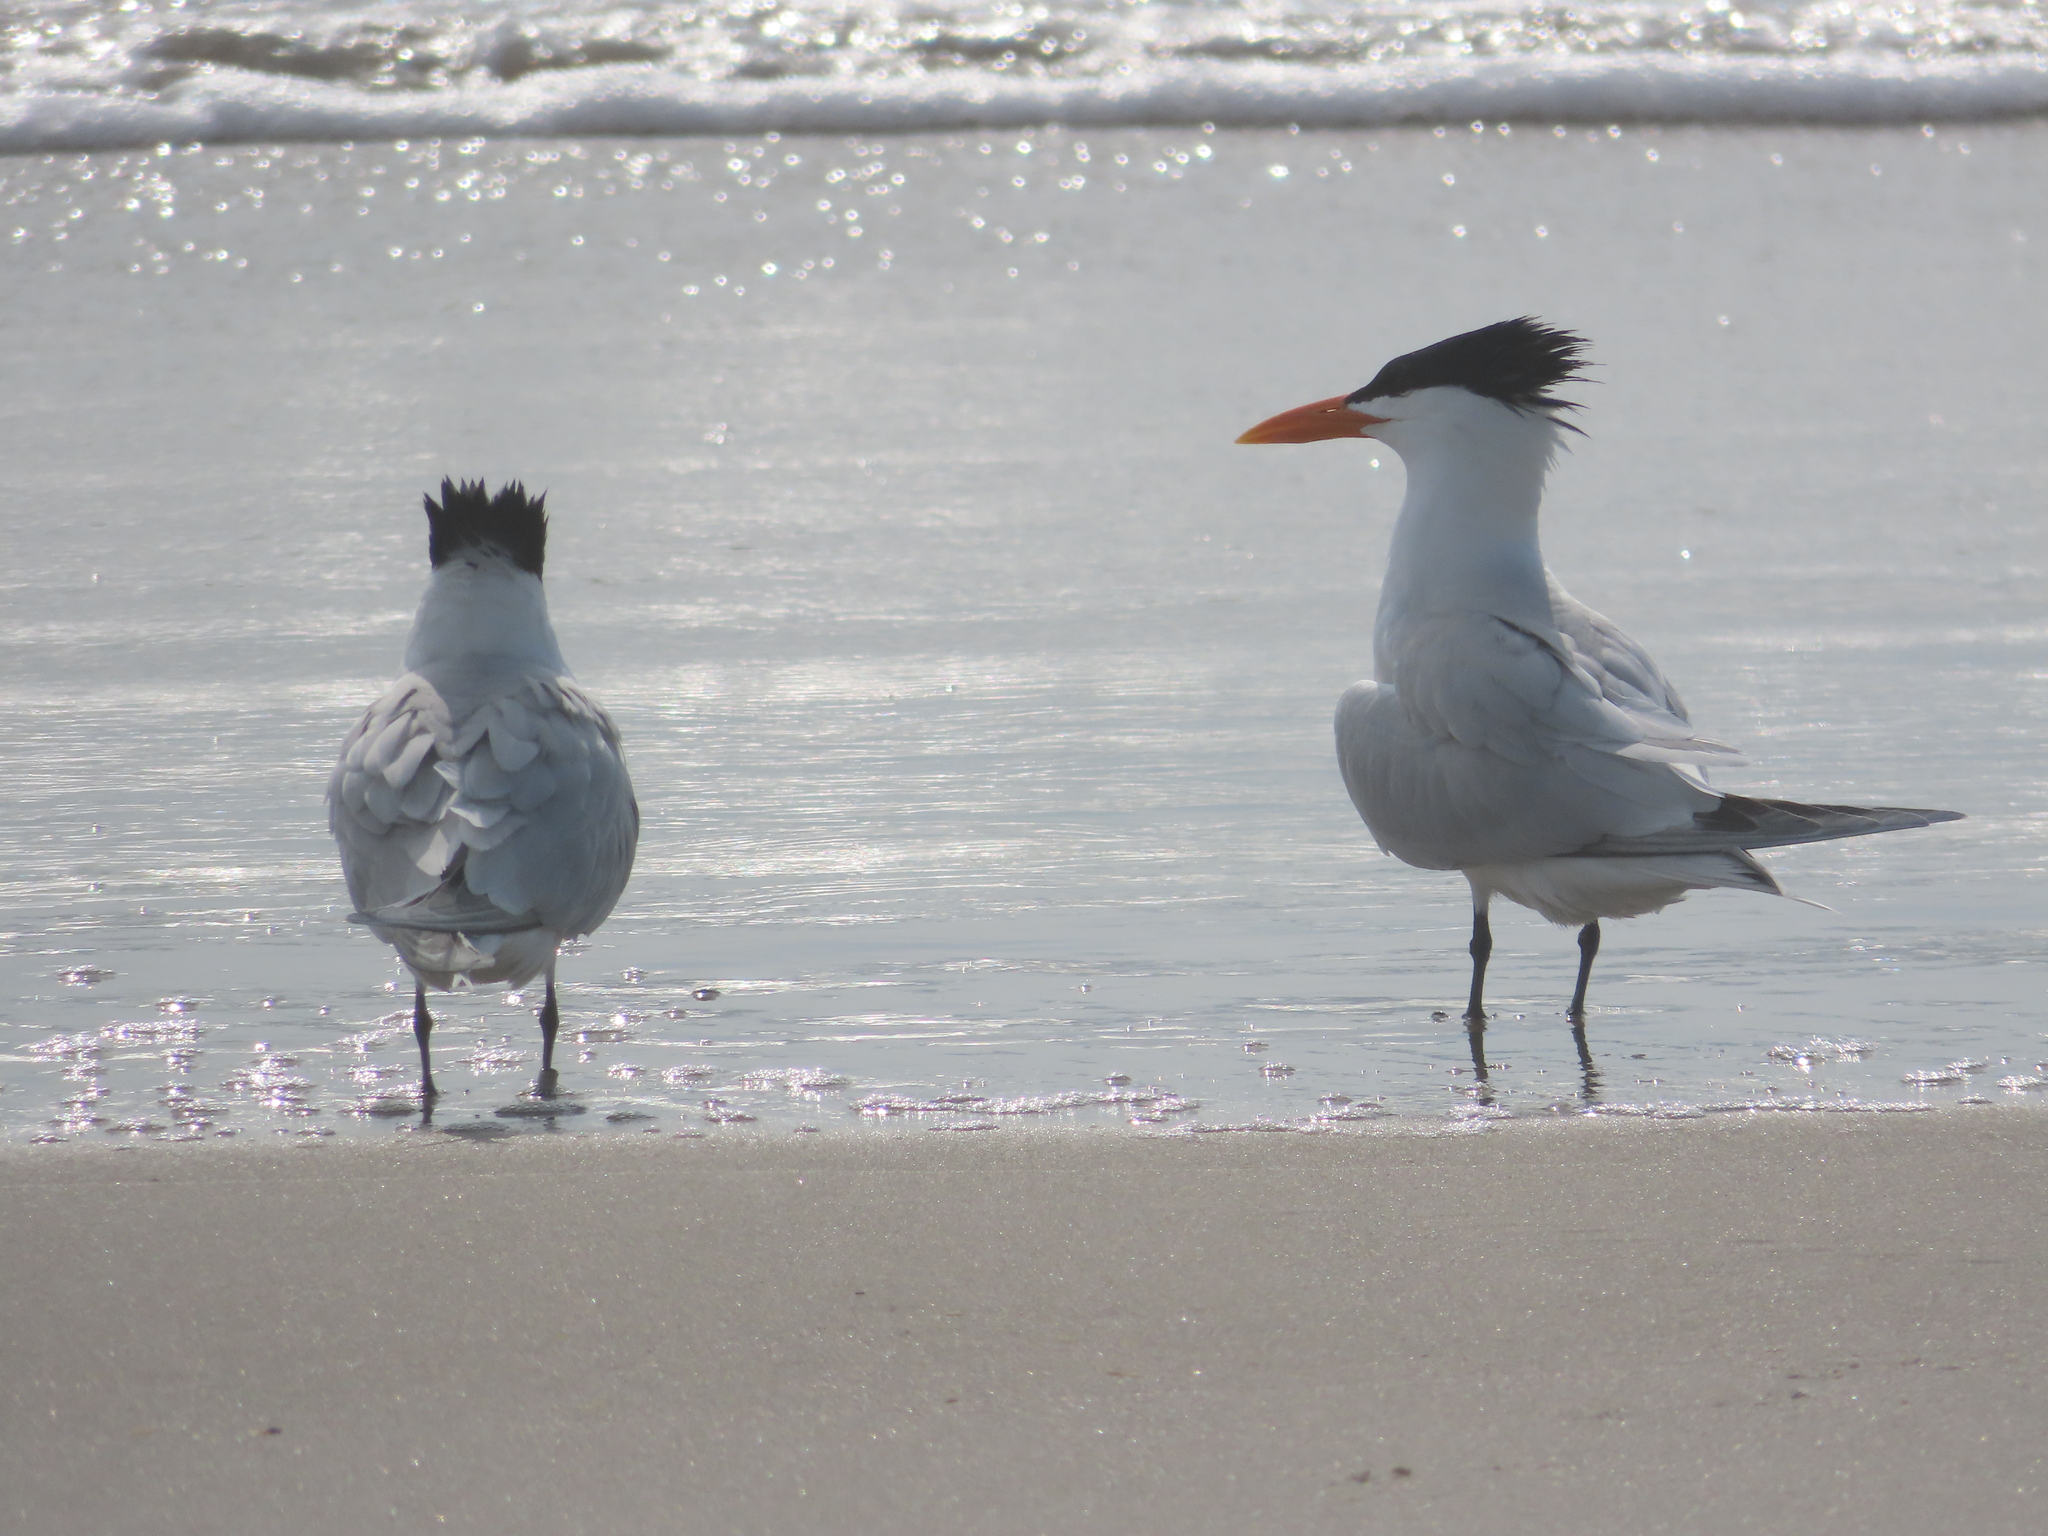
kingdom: Animalia
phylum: Chordata
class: Aves
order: Charadriiformes
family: Laridae
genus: Thalasseus
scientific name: Thalasseus maximus
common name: Royal tern
